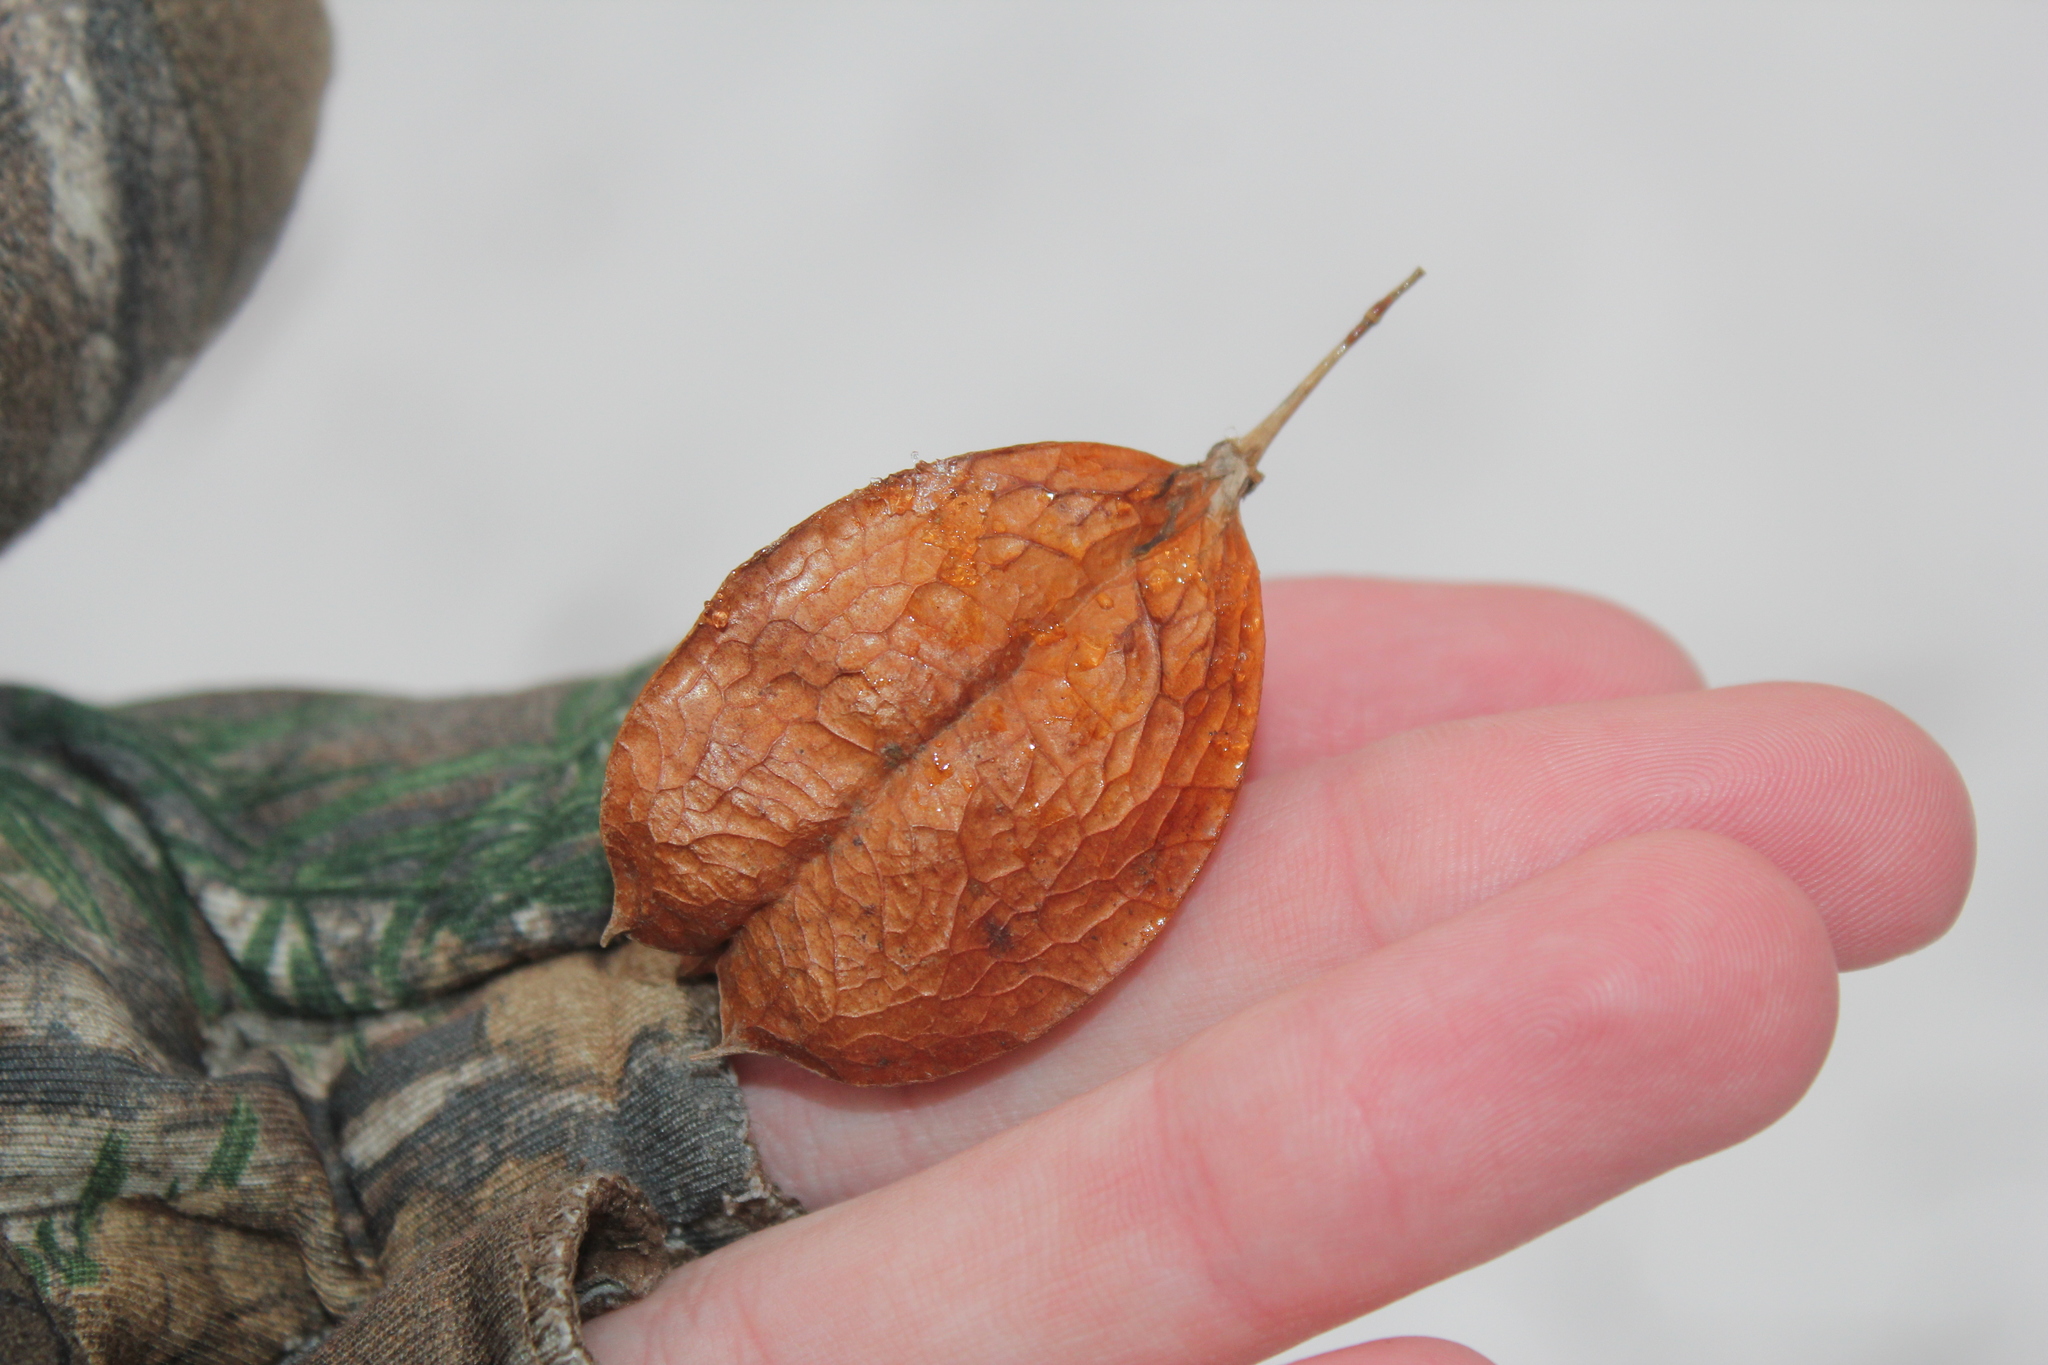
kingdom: Plantae
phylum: Tracheophyta
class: Magnoliopsida
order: Crossosomatales
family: Staphyleaceae
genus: Staphylea
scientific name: Staphylea trifolia
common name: American bladdernut
